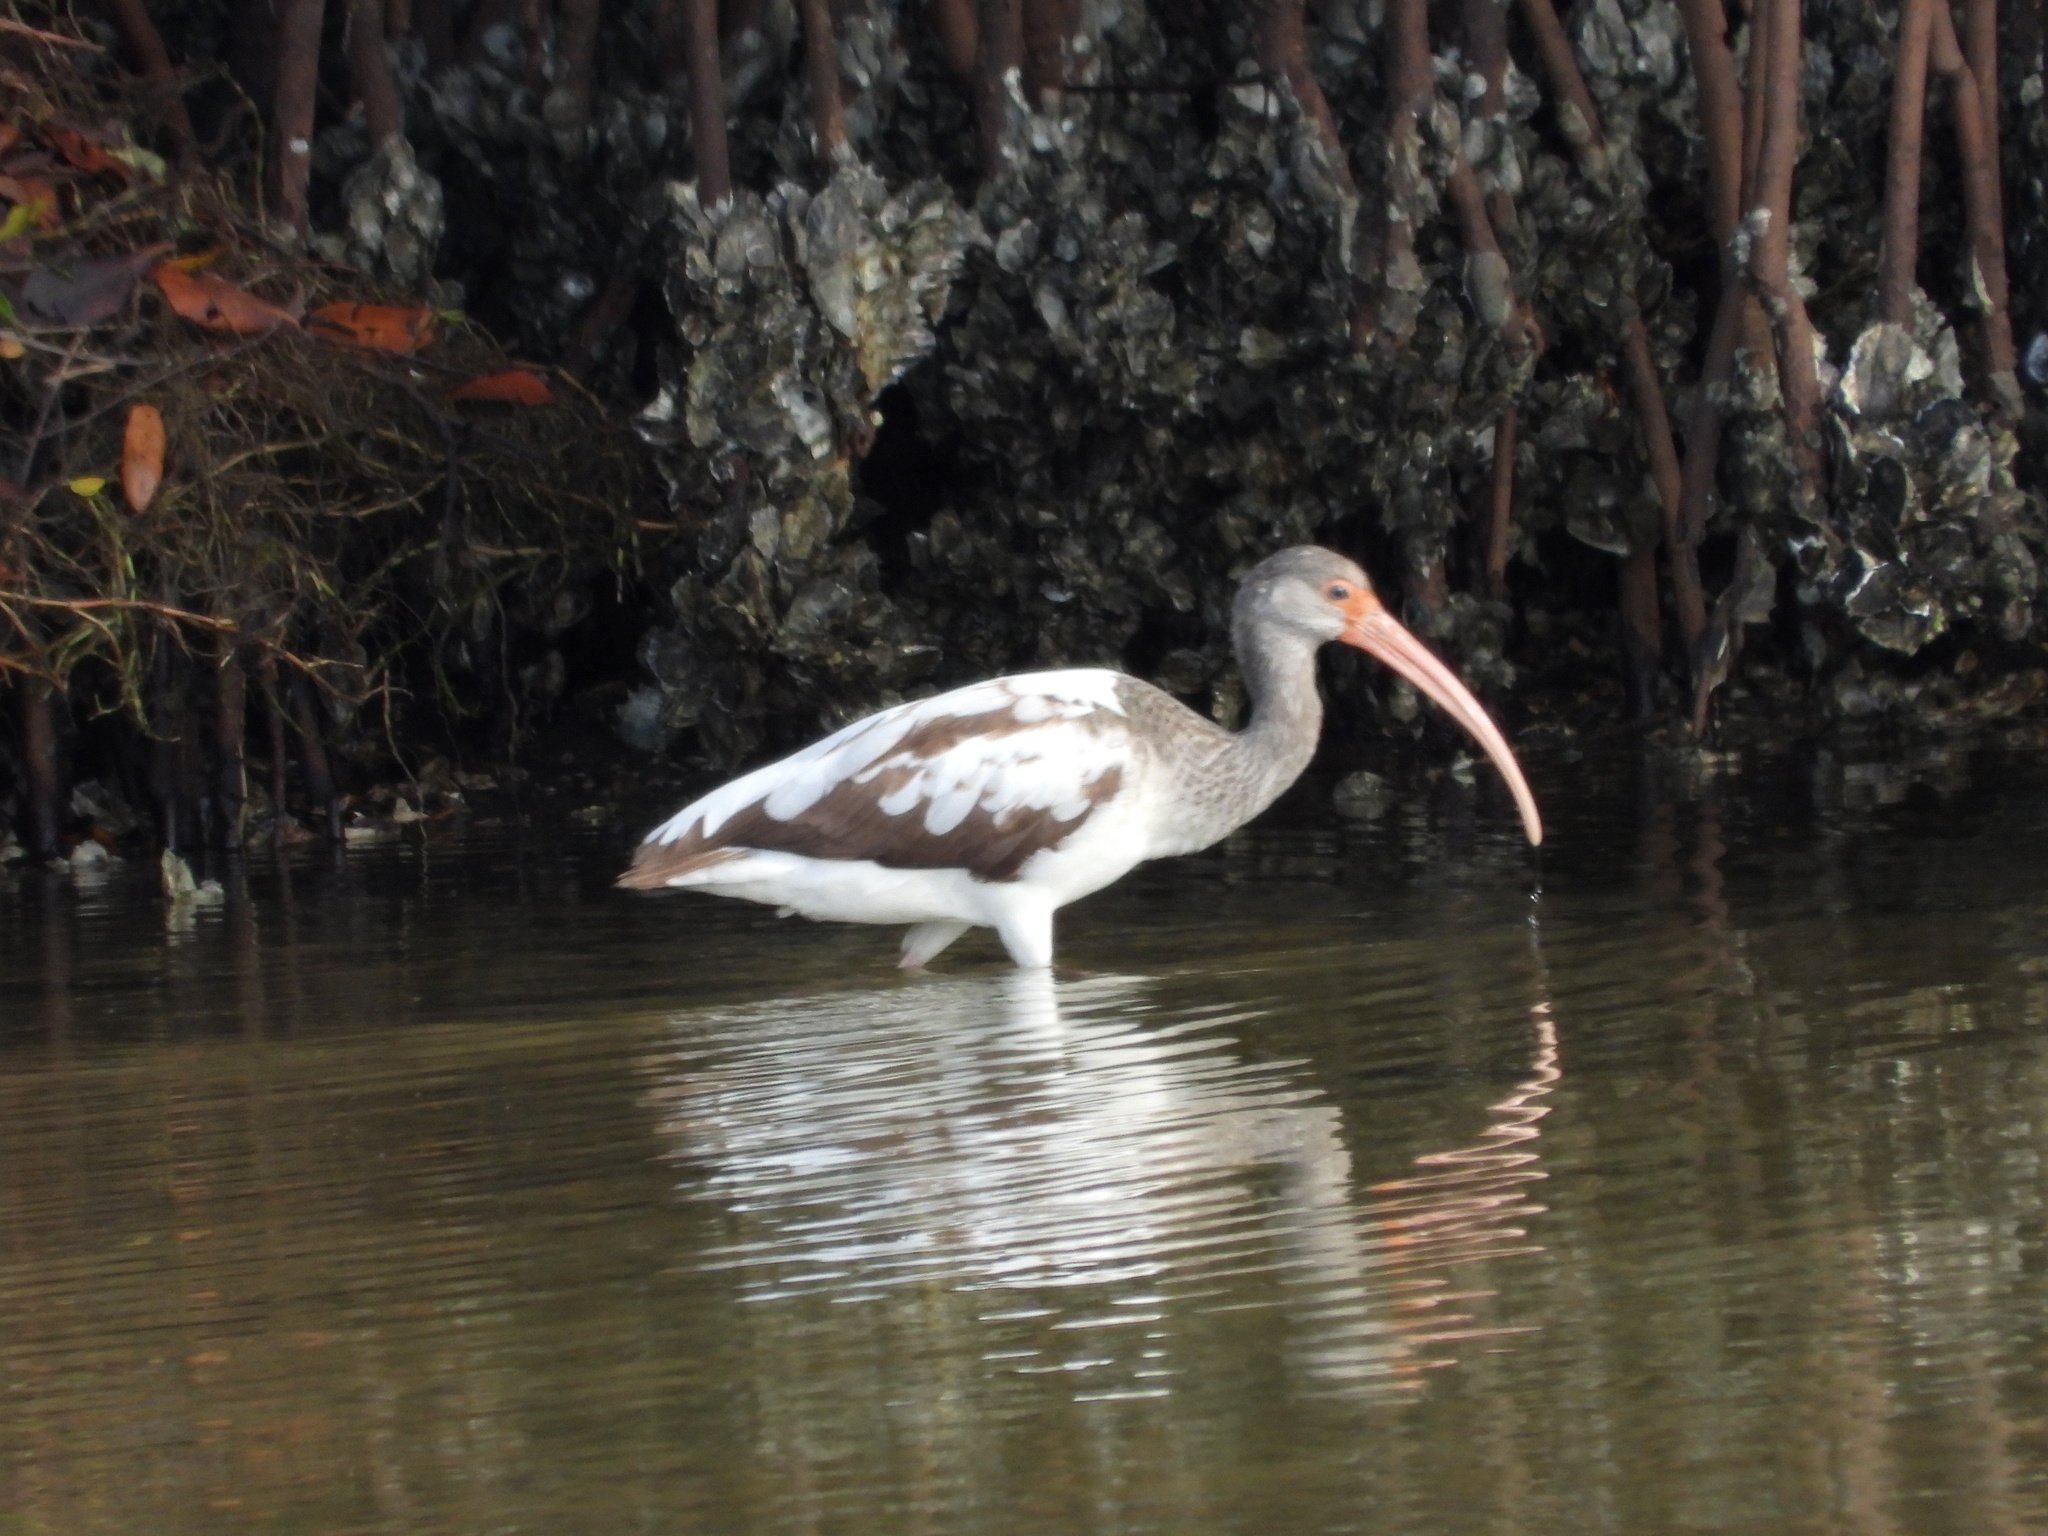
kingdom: Animalia
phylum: Chordata
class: Aves
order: Pelecaniformes
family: Threskiornithidae
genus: Eudocimus
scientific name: Eudocimus albus
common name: White ibis
